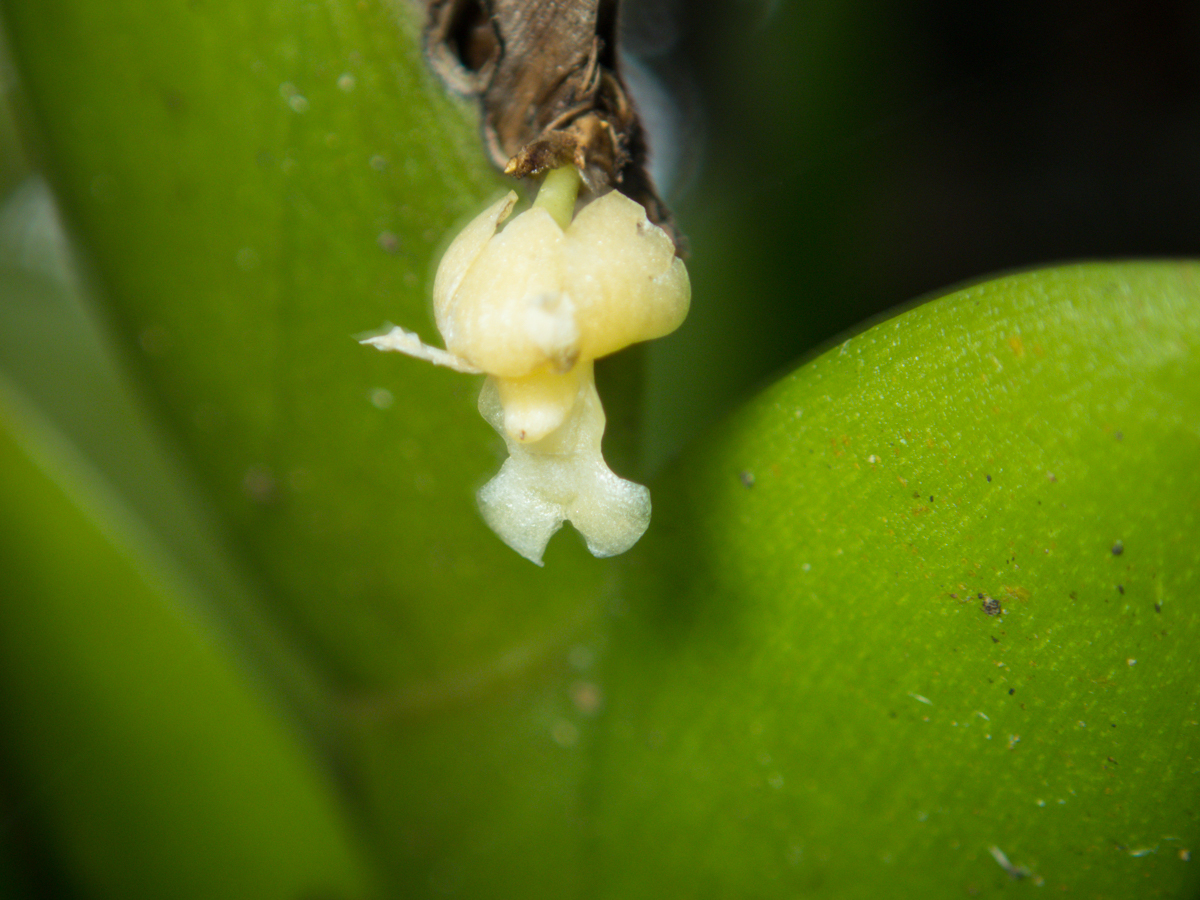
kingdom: Plantae
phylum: Tracheophyta
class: Liliopsida
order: Asparagales
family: Orchidaceae
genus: Dendrobium
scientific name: Dendrobium aloifolium
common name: Aloe-like dendrobium
